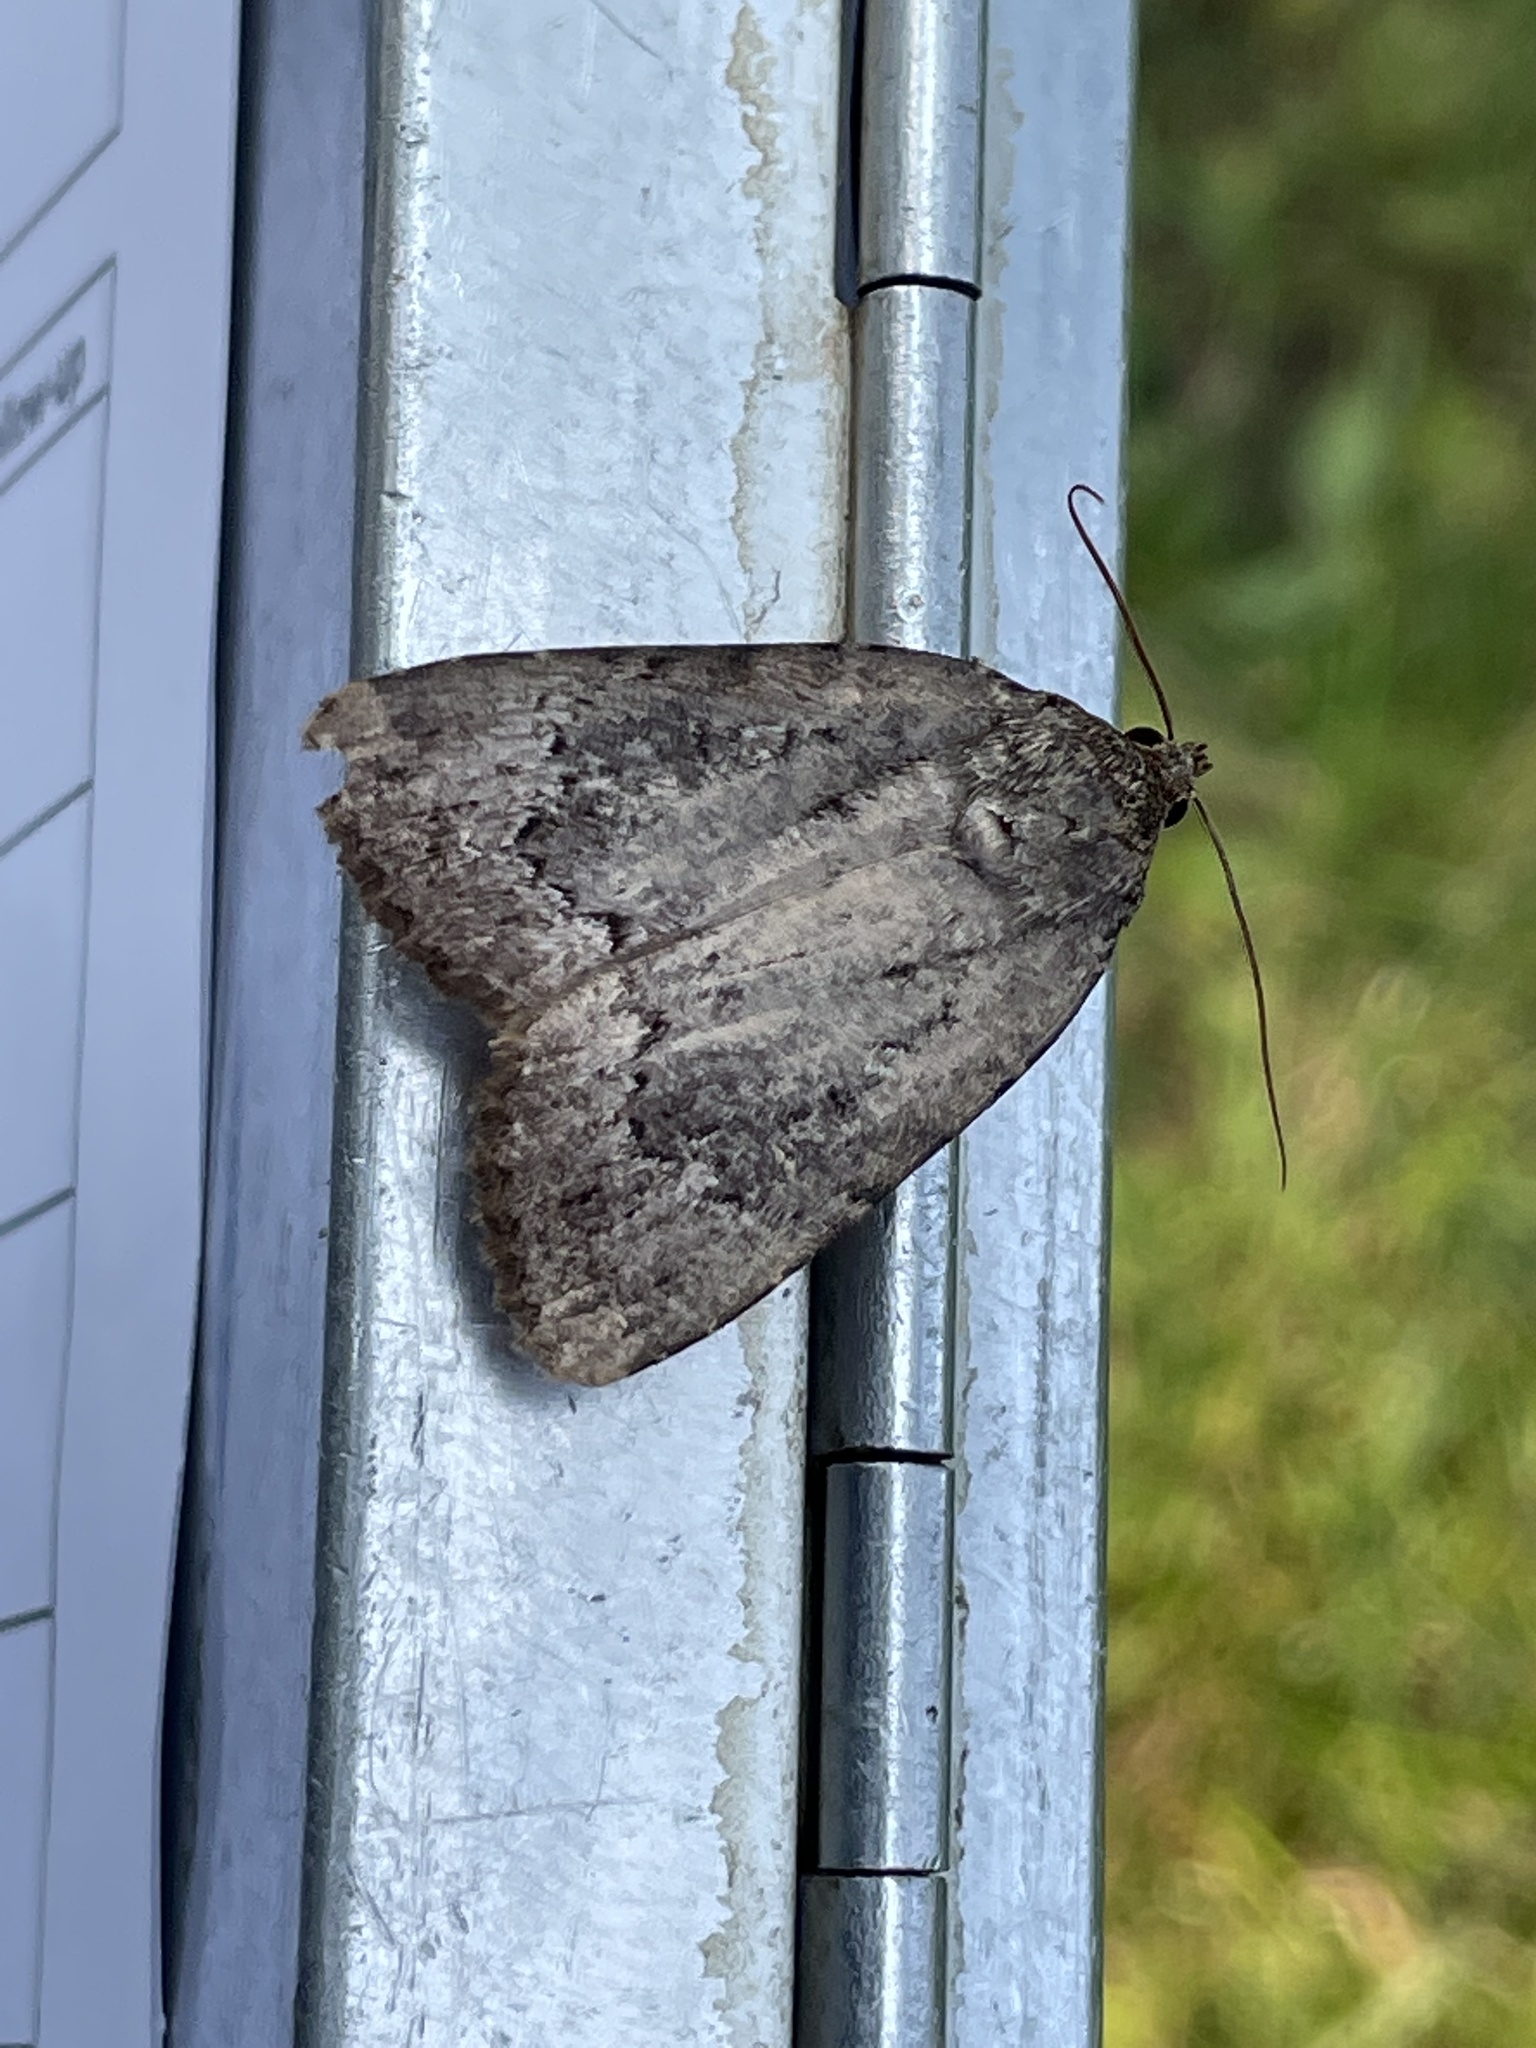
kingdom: Animalia
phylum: Arthropoda
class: Insecta
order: Lepidoptera
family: Noctuidae
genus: Amphipyra
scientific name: Amphipyra pyramidoides
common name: American copper underwing
